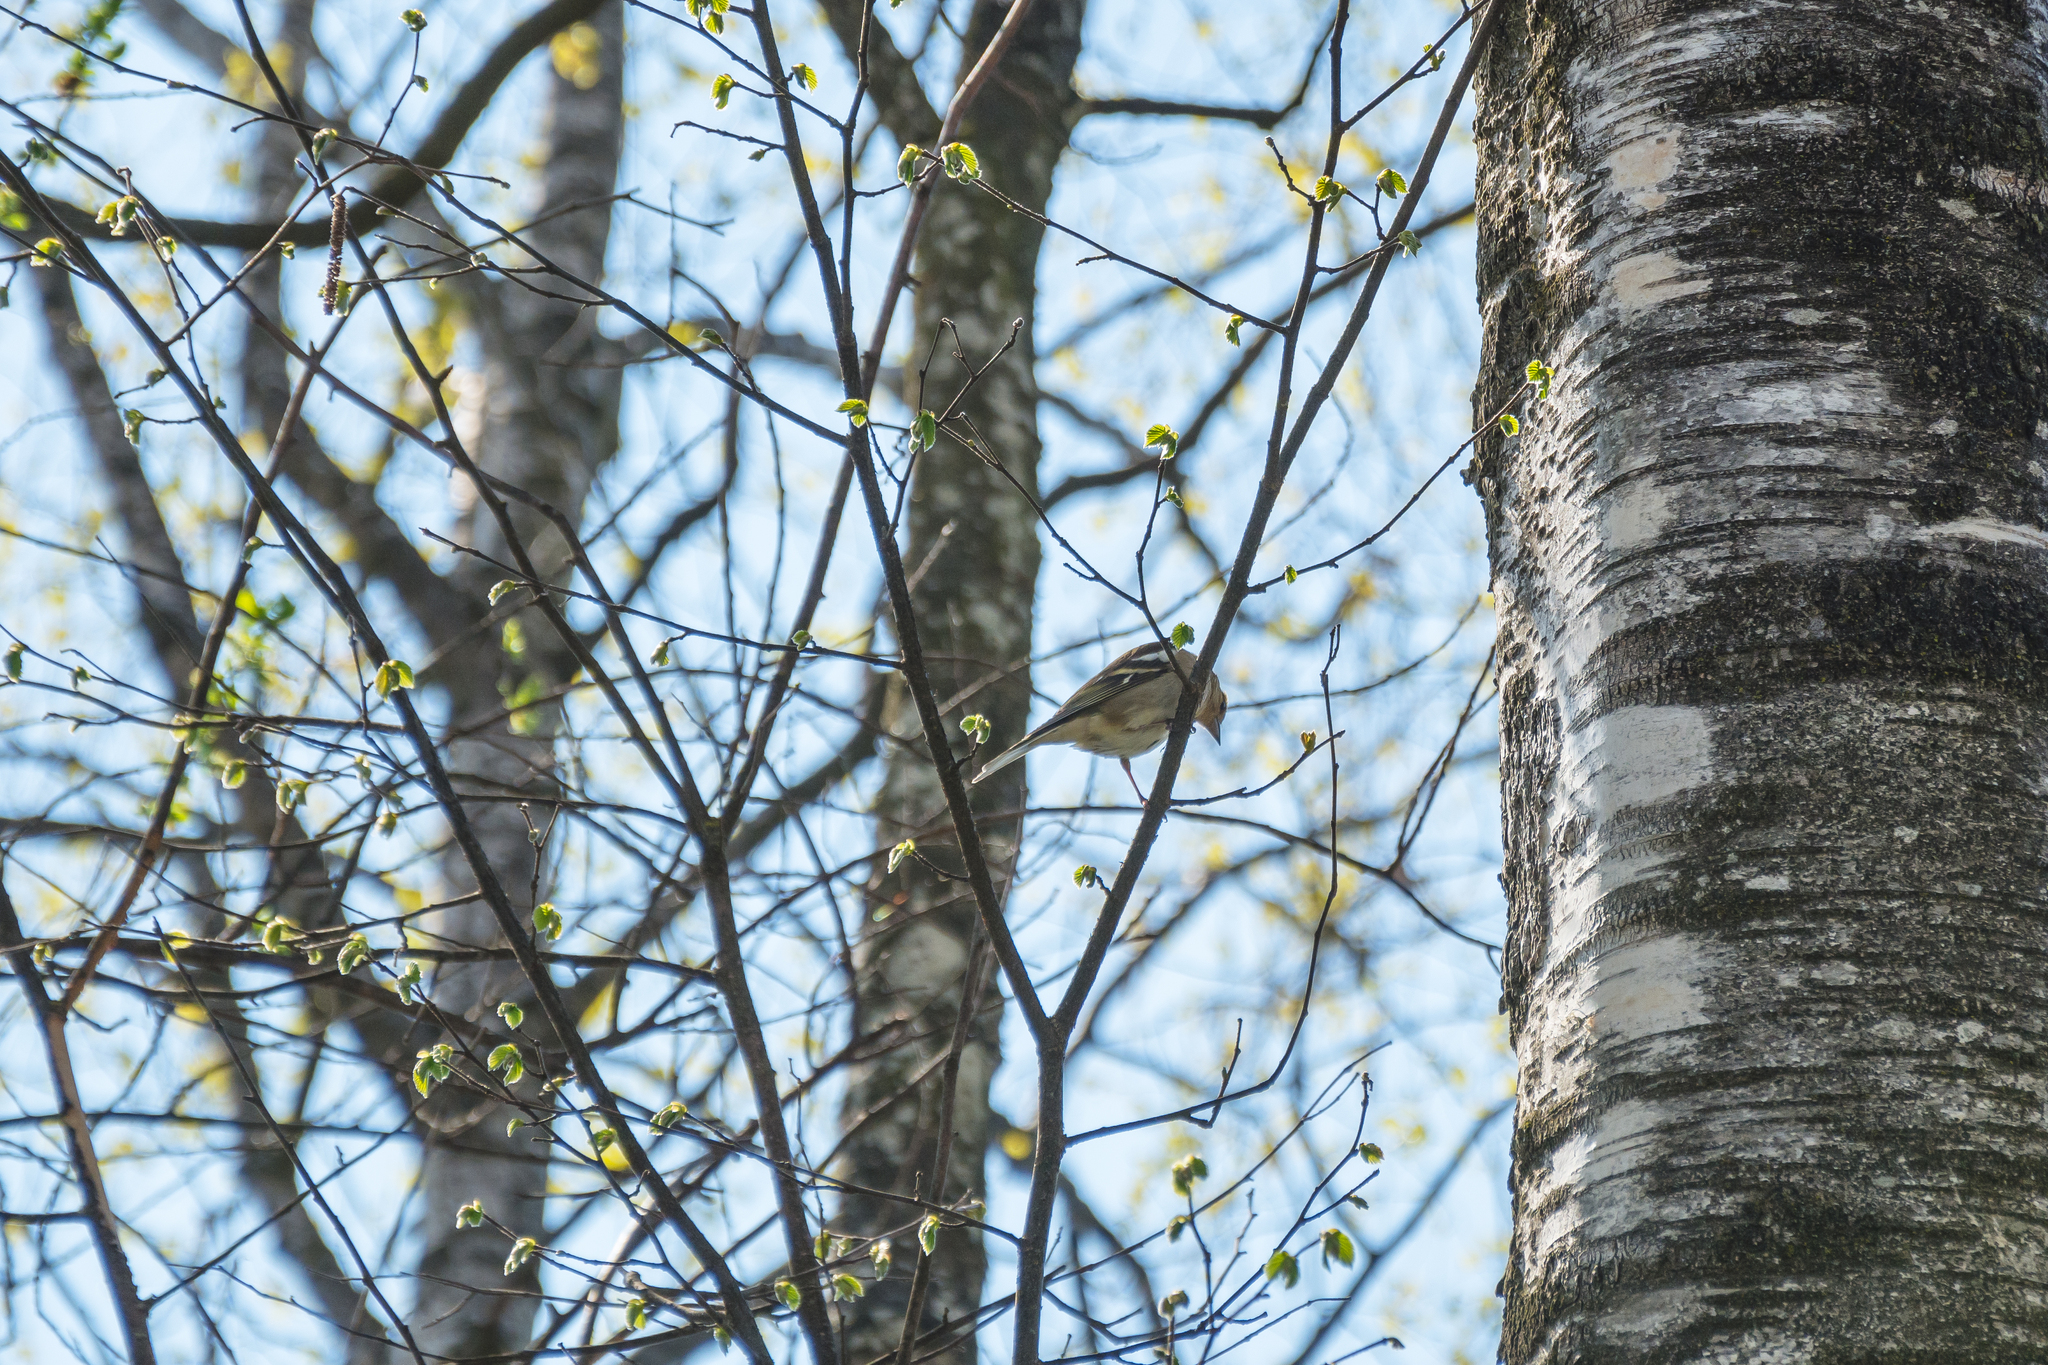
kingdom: Animalia
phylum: Chordata
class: Aves
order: Passeriformes
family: Fringillidae
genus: Fringilla
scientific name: Fringilla coelebs
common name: Common chaffinch
